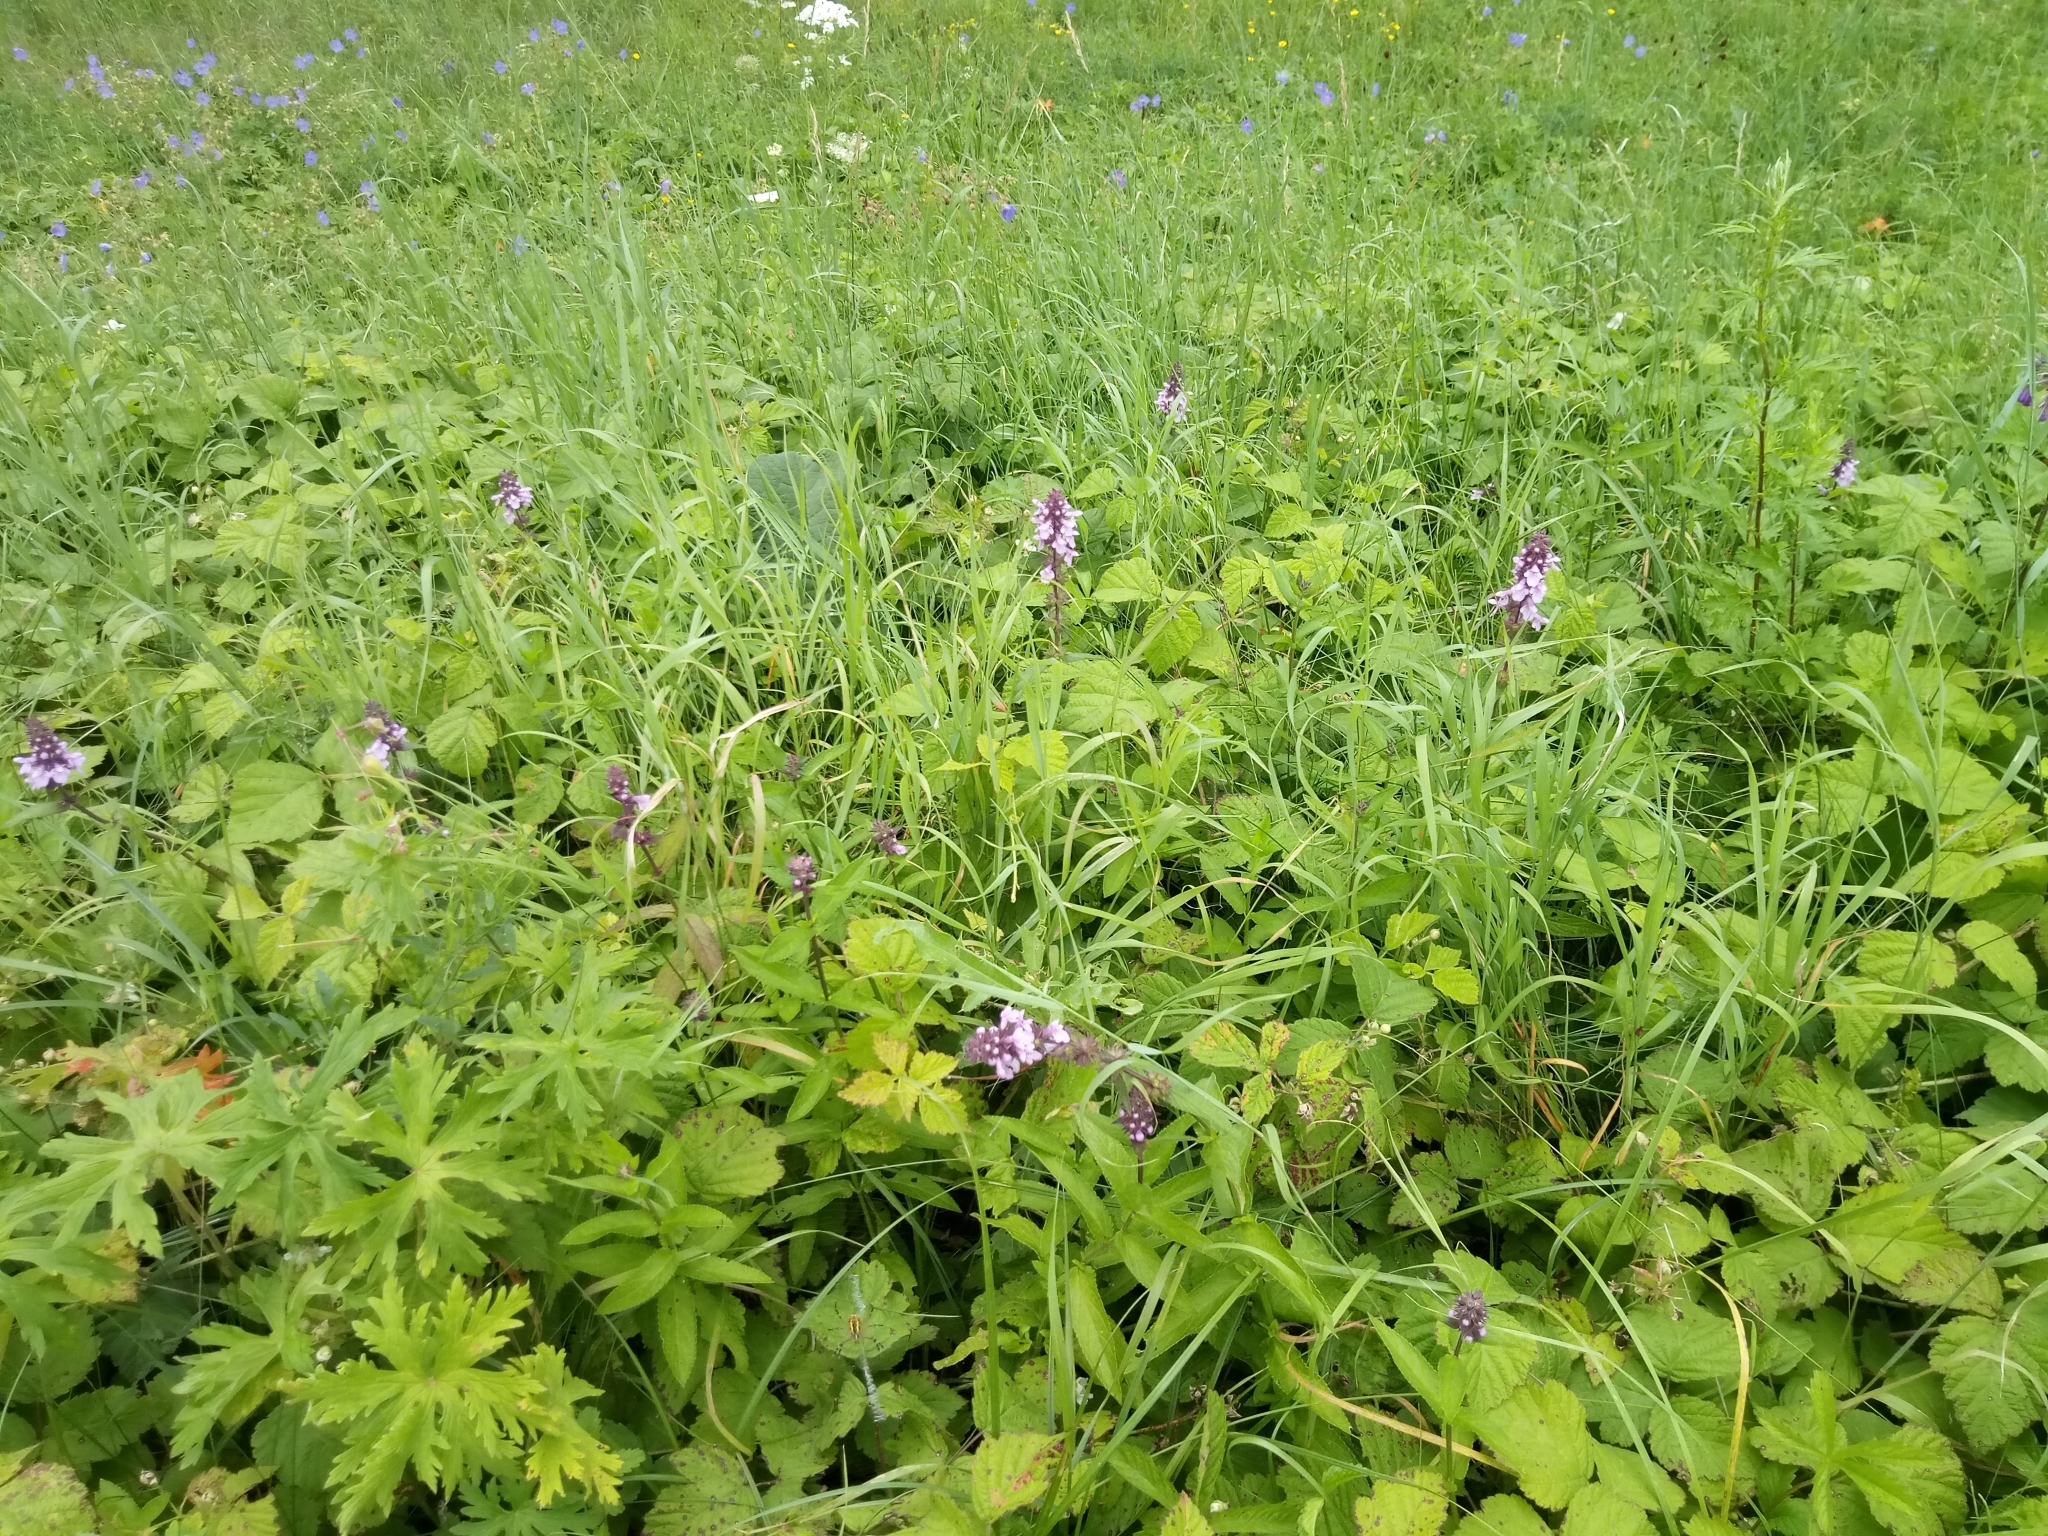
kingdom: Plantae
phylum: Tracheophyta
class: Magnoliopsida
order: Lamiales
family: Lamiaceae
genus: Stachys
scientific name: Stachys palustris
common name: Marsh woundwort
